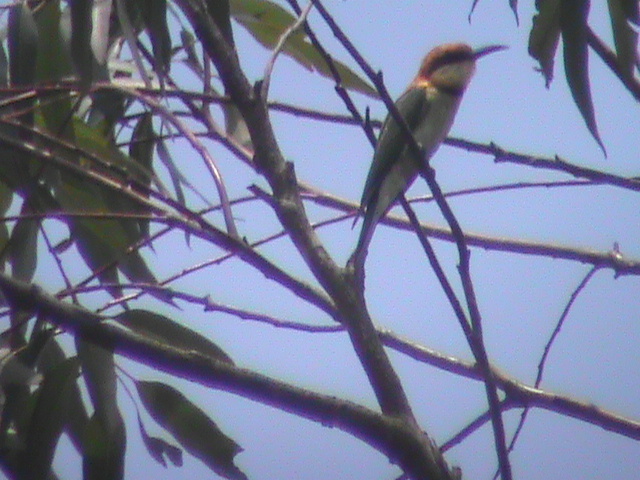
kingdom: Animalia
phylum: Chordata
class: Aves
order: Coraciiformes
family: Meropidae
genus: Merops
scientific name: Merops leschenaulti
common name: Chestnut-headed bee-eater
